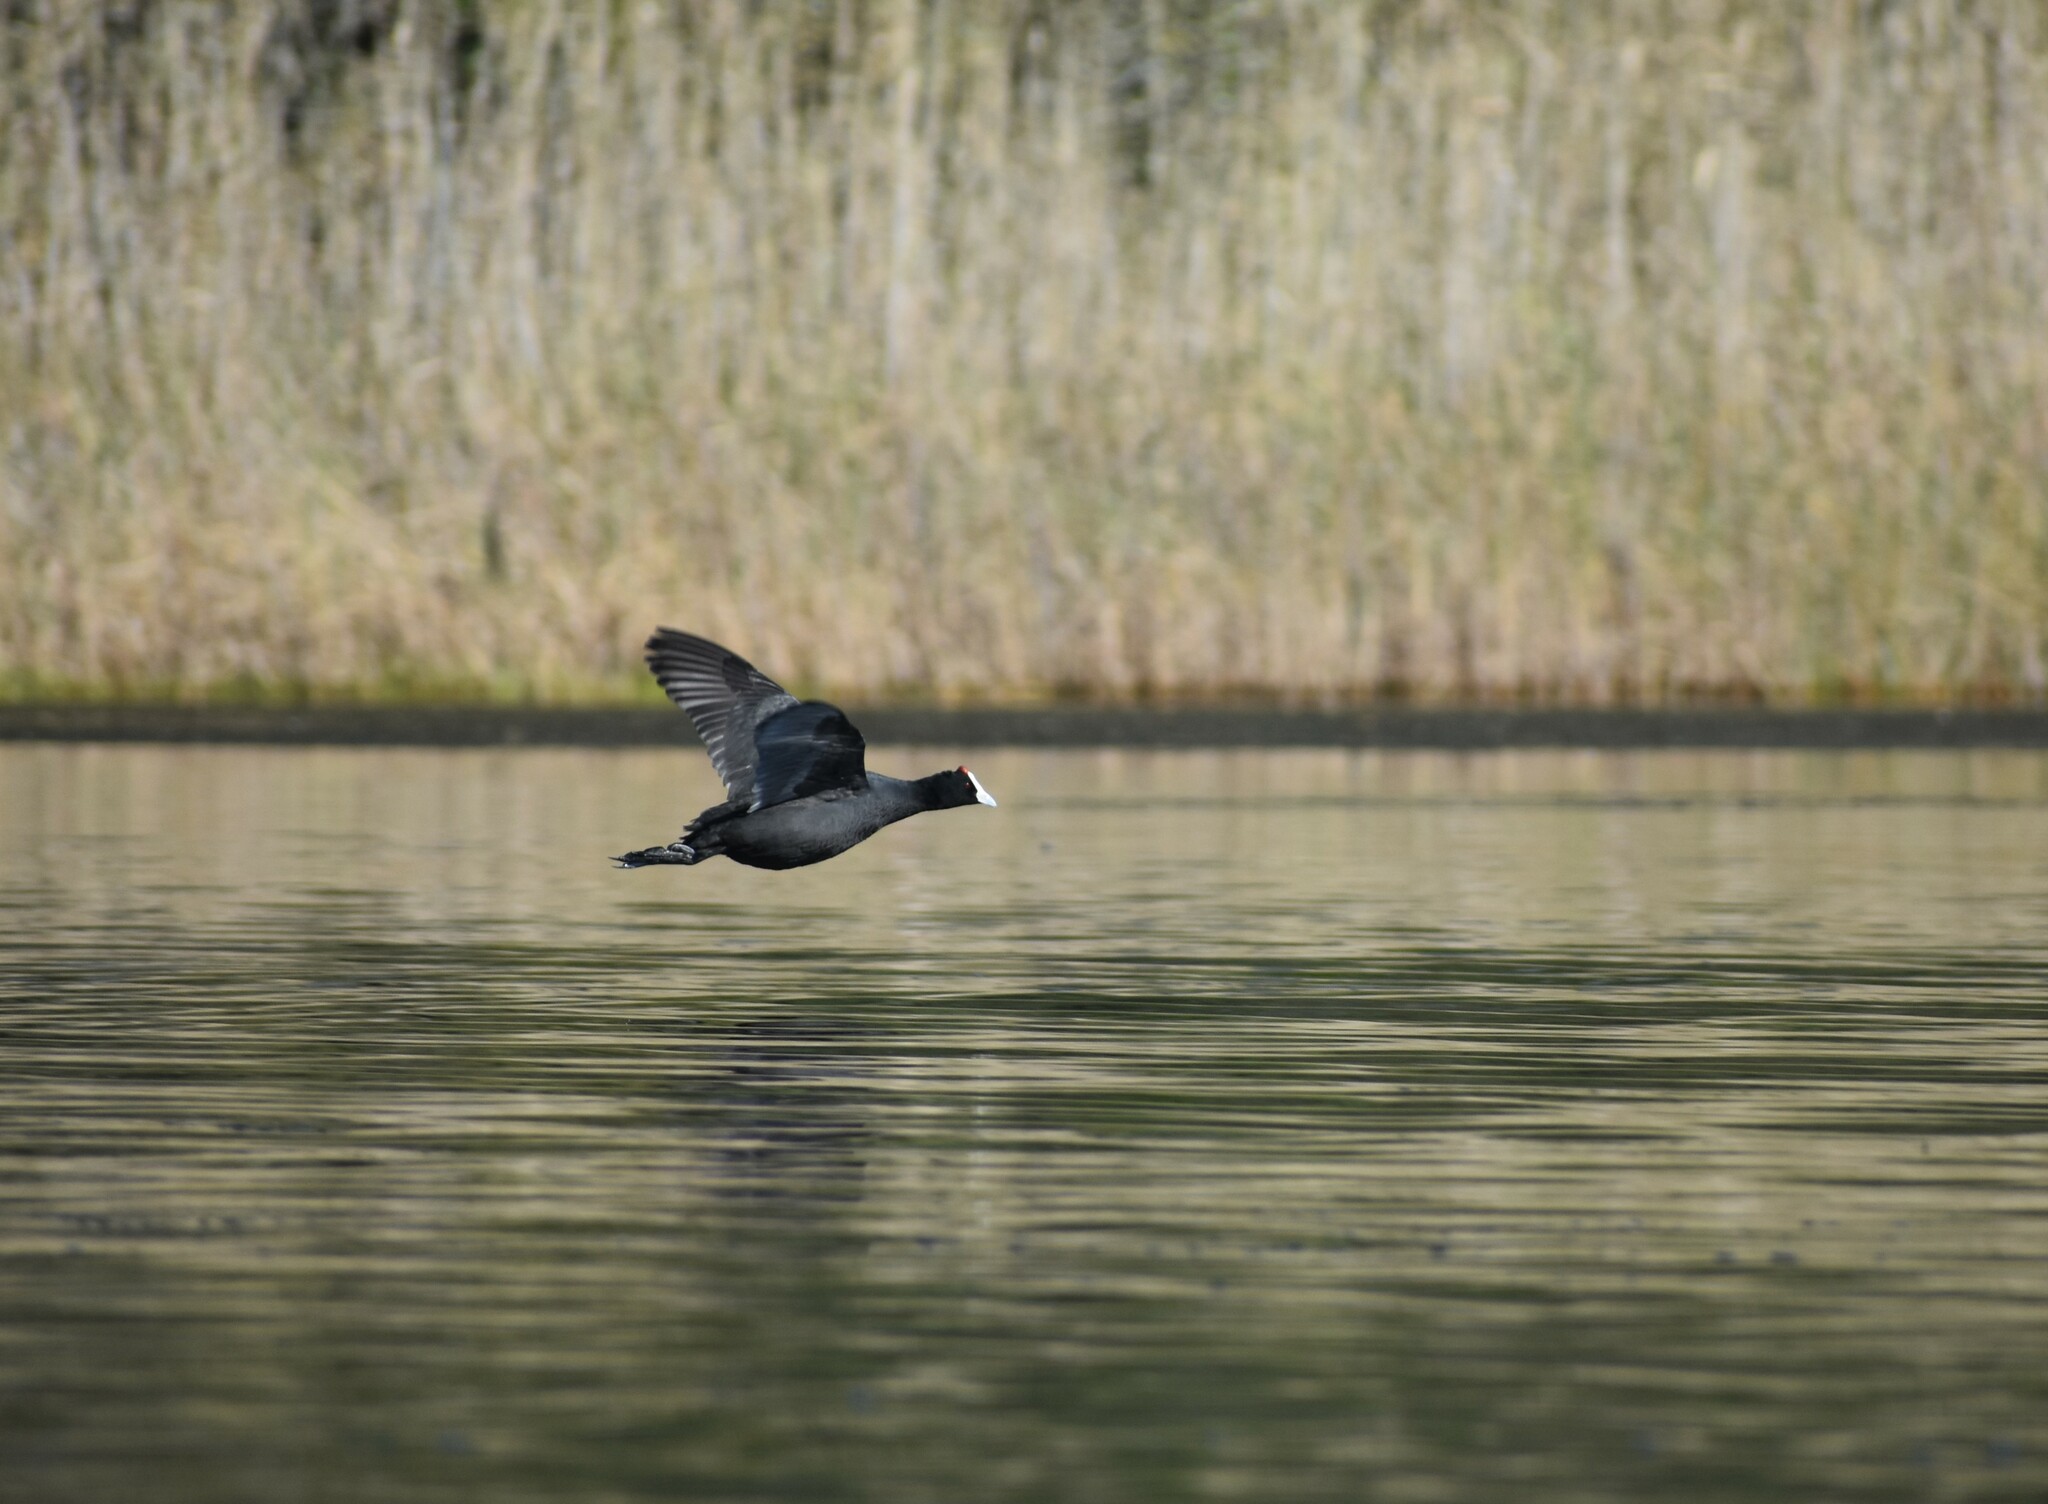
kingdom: Animalia
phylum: Chordata
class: Aves
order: Gruiformes
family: Rallidae
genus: Fulica
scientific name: Fulica cristata
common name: Red-knobbed coot
